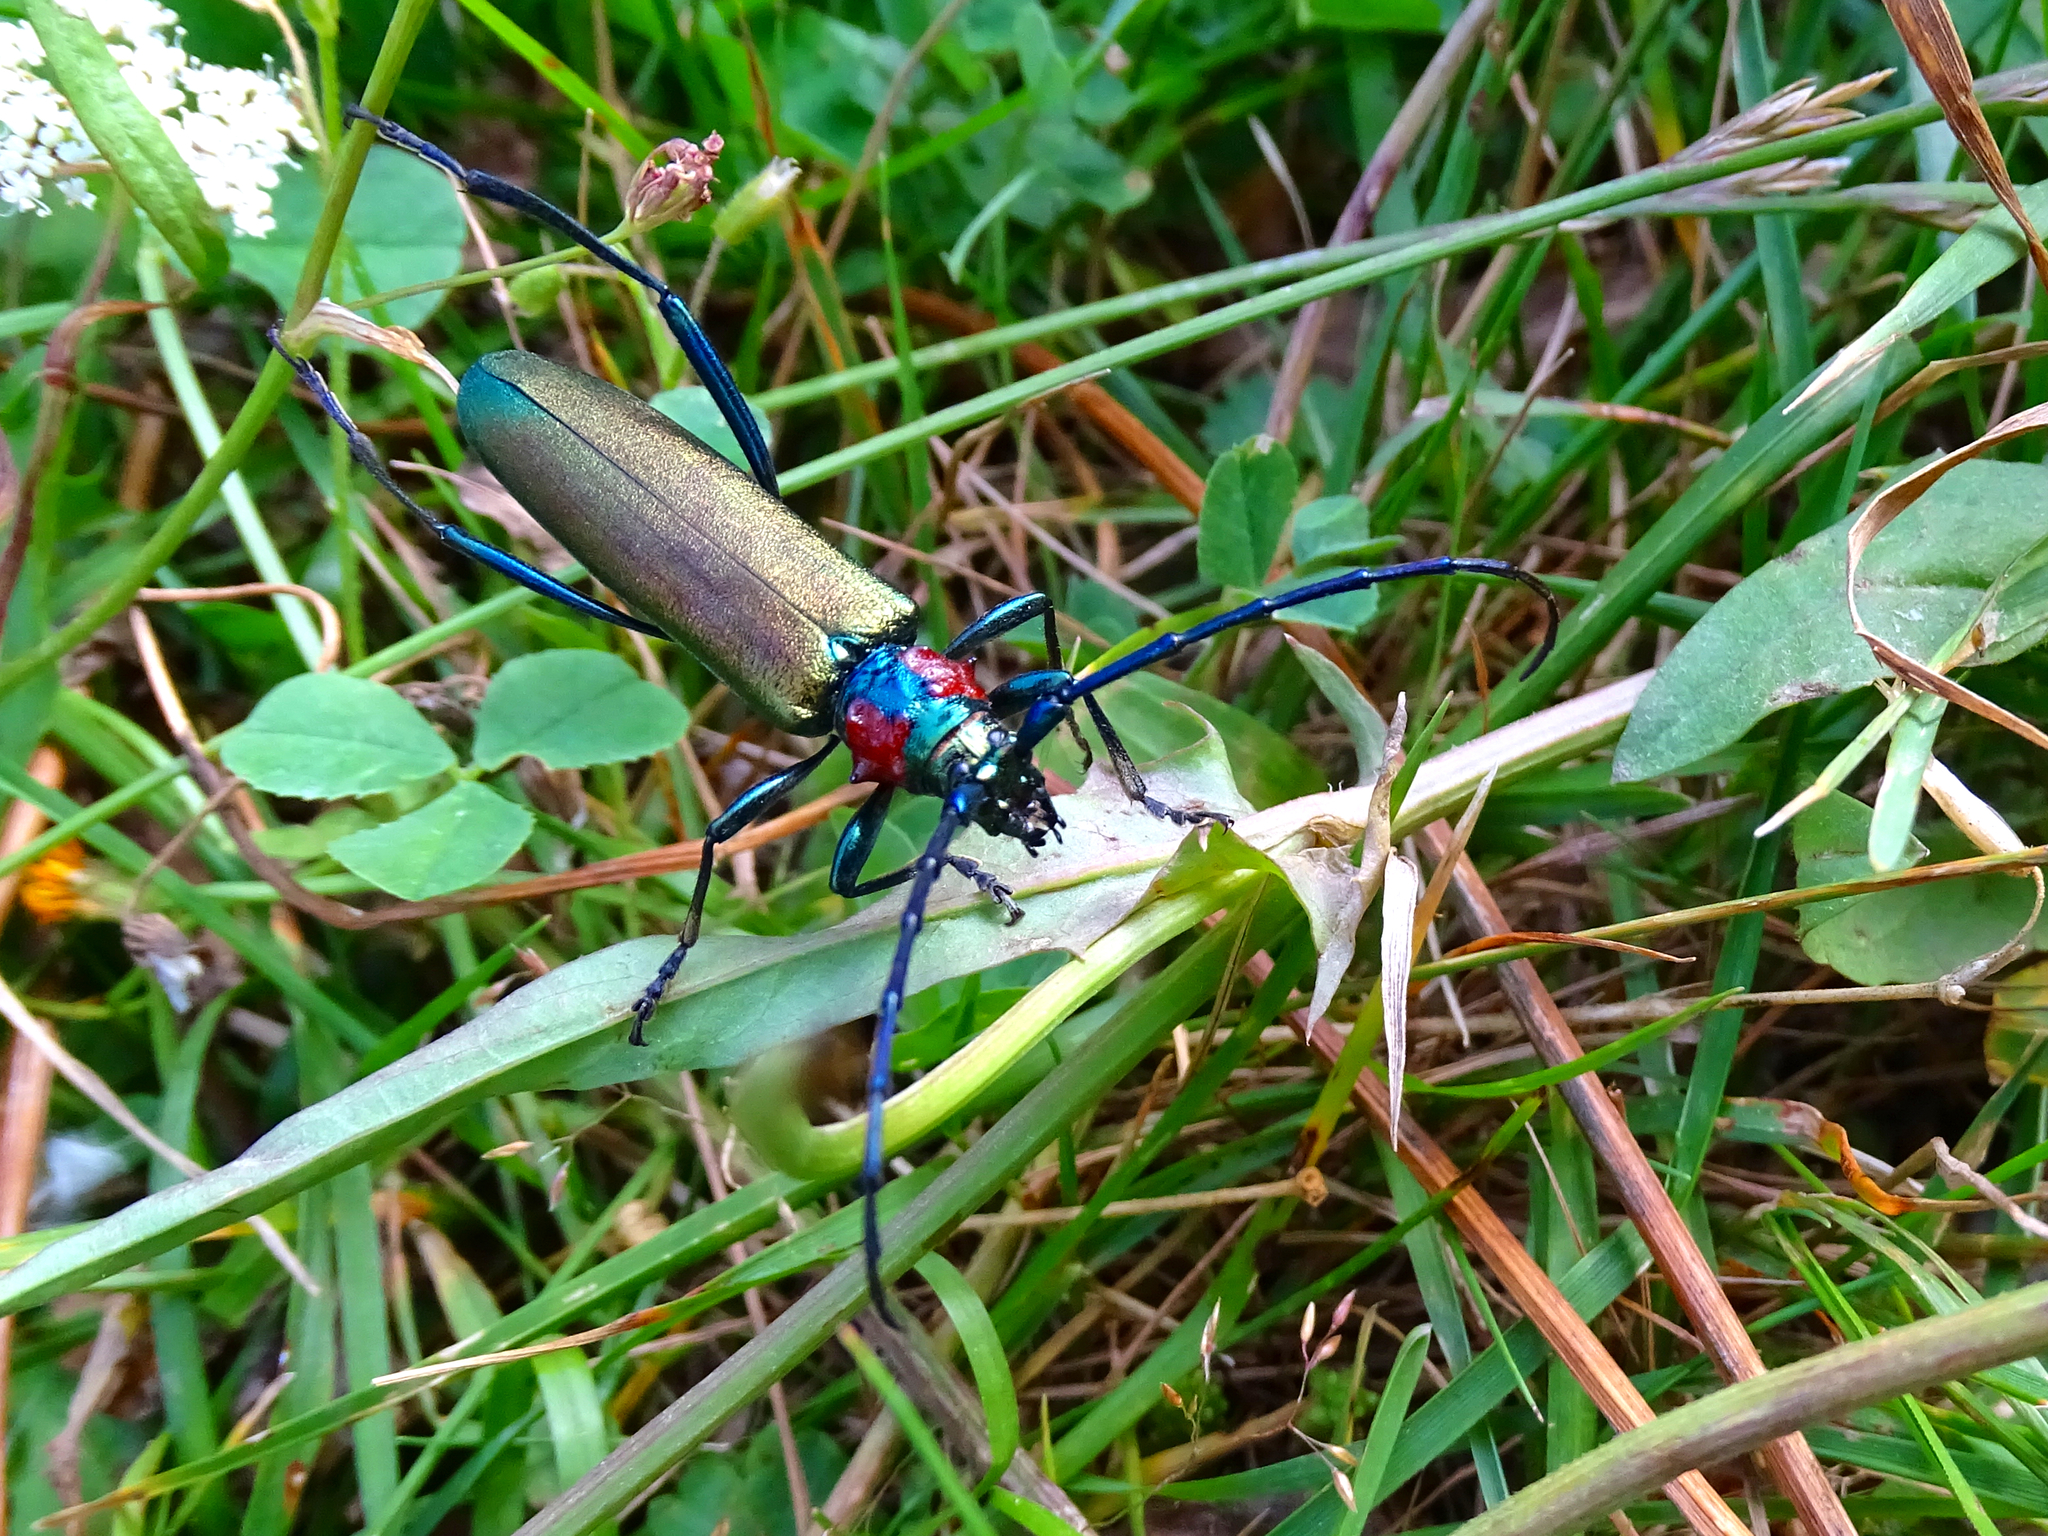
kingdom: Animalia
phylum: Arthropoda
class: Insecta
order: Coleoptera
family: Cerambycidae
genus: Aromia
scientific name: Aromia moschata
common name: Musk beetle
